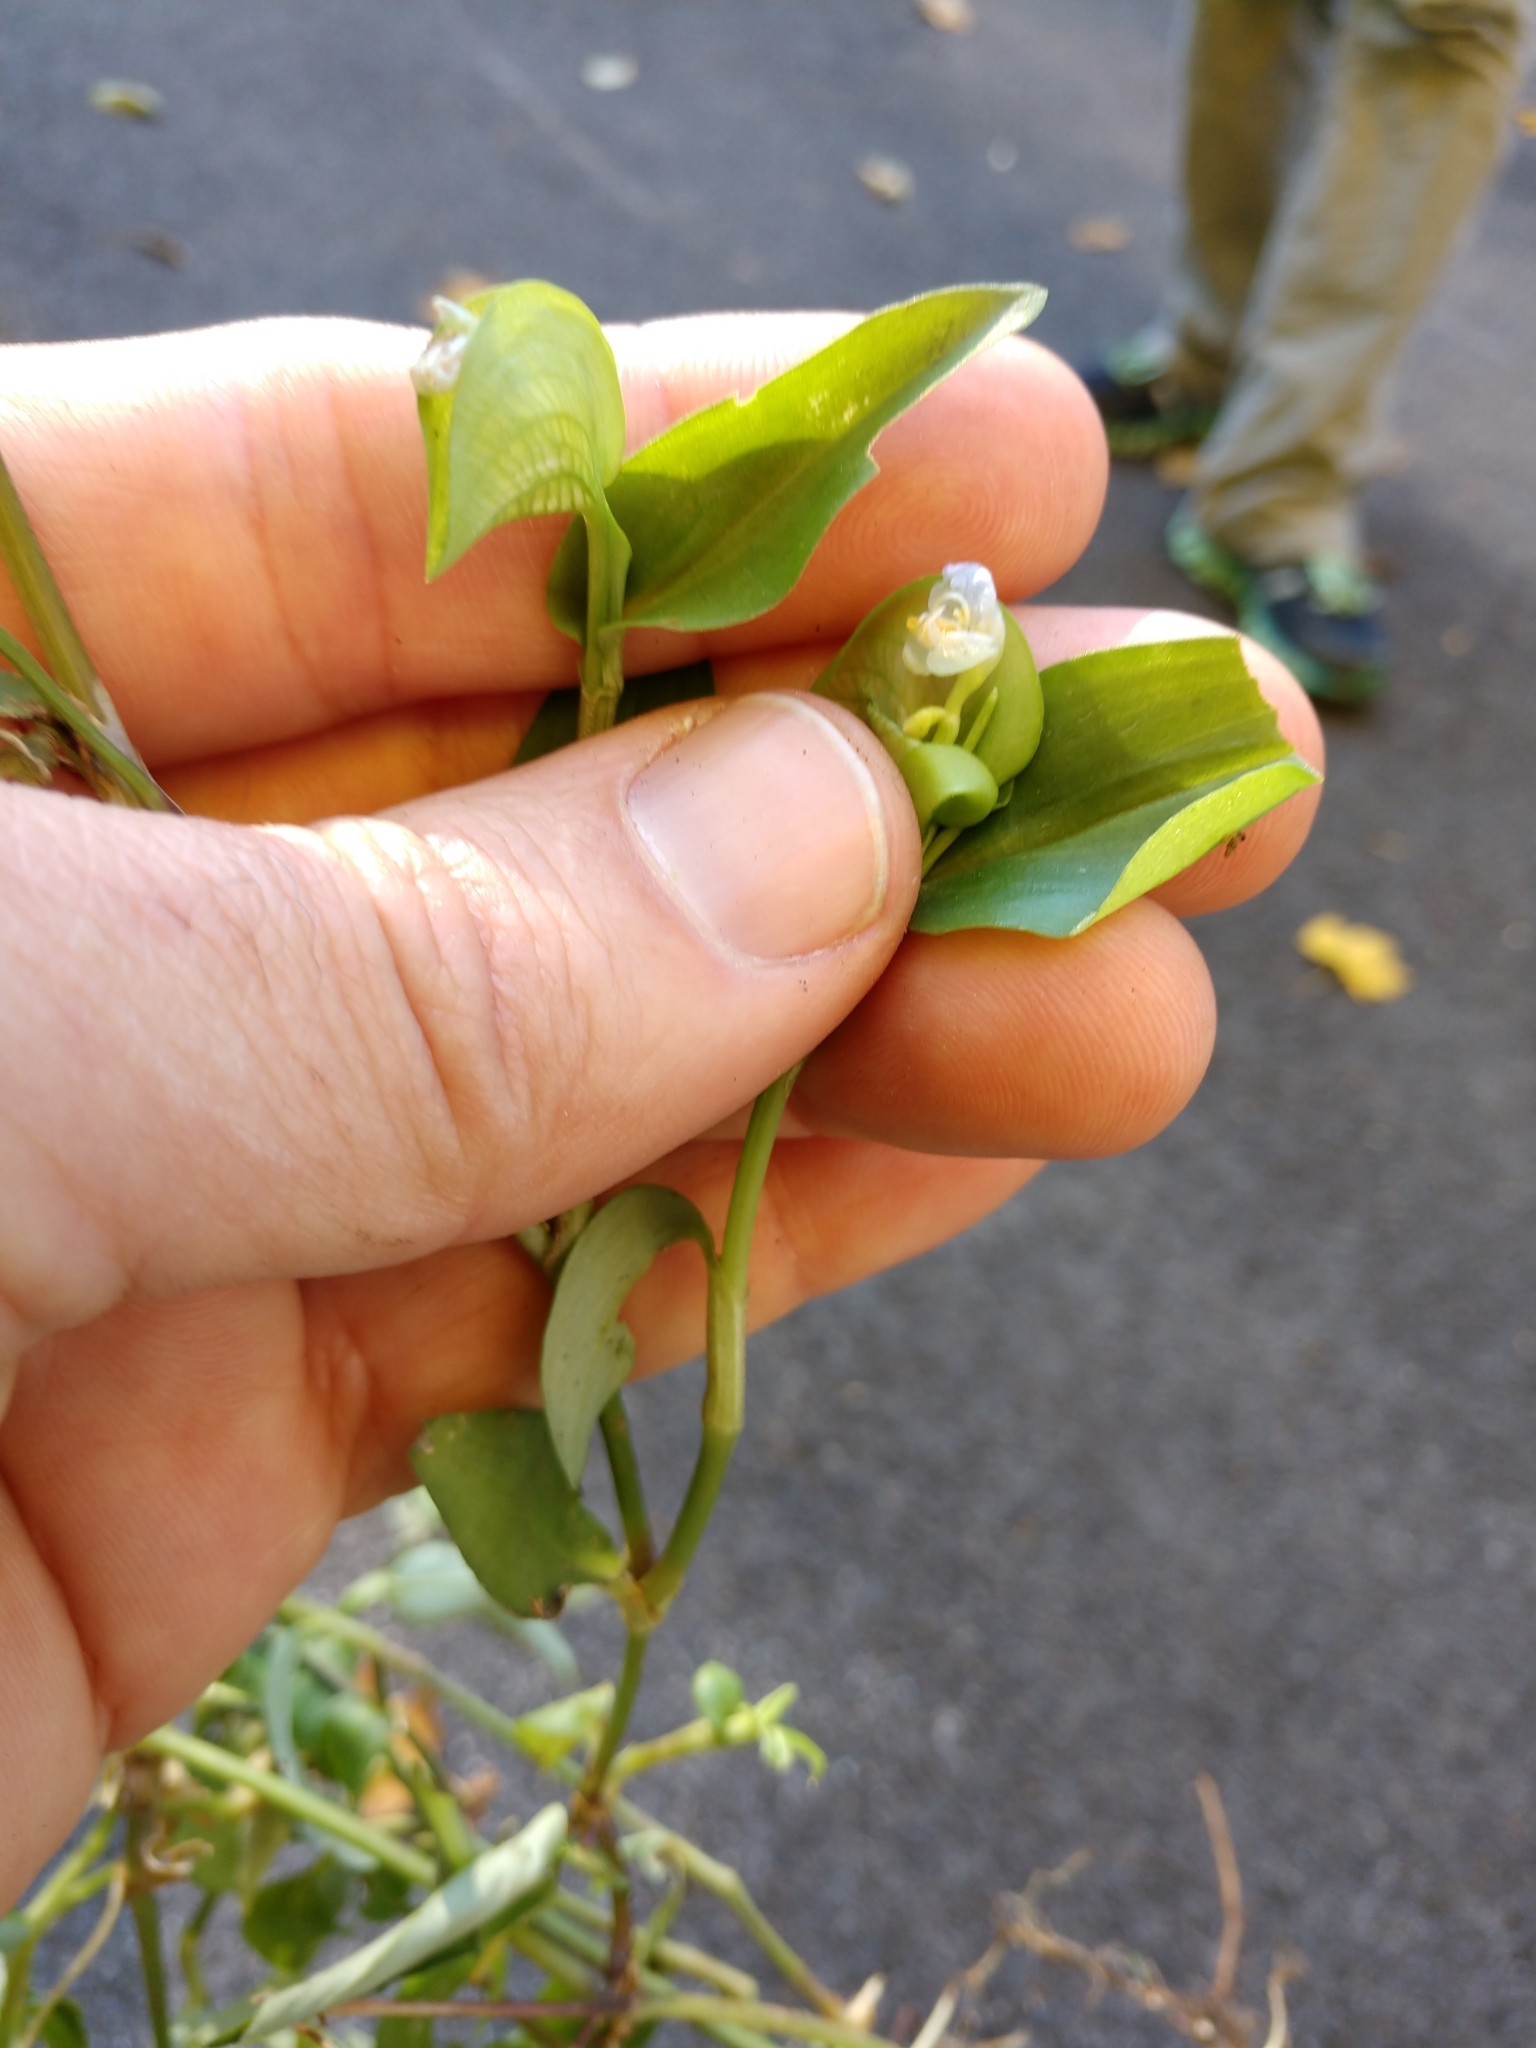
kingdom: Plantae
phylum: Tracheophyta
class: Liliopsida
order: Commelinales
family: Commelinaceae
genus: Commelina
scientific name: Commelina communis
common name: Asiatic dayflower
